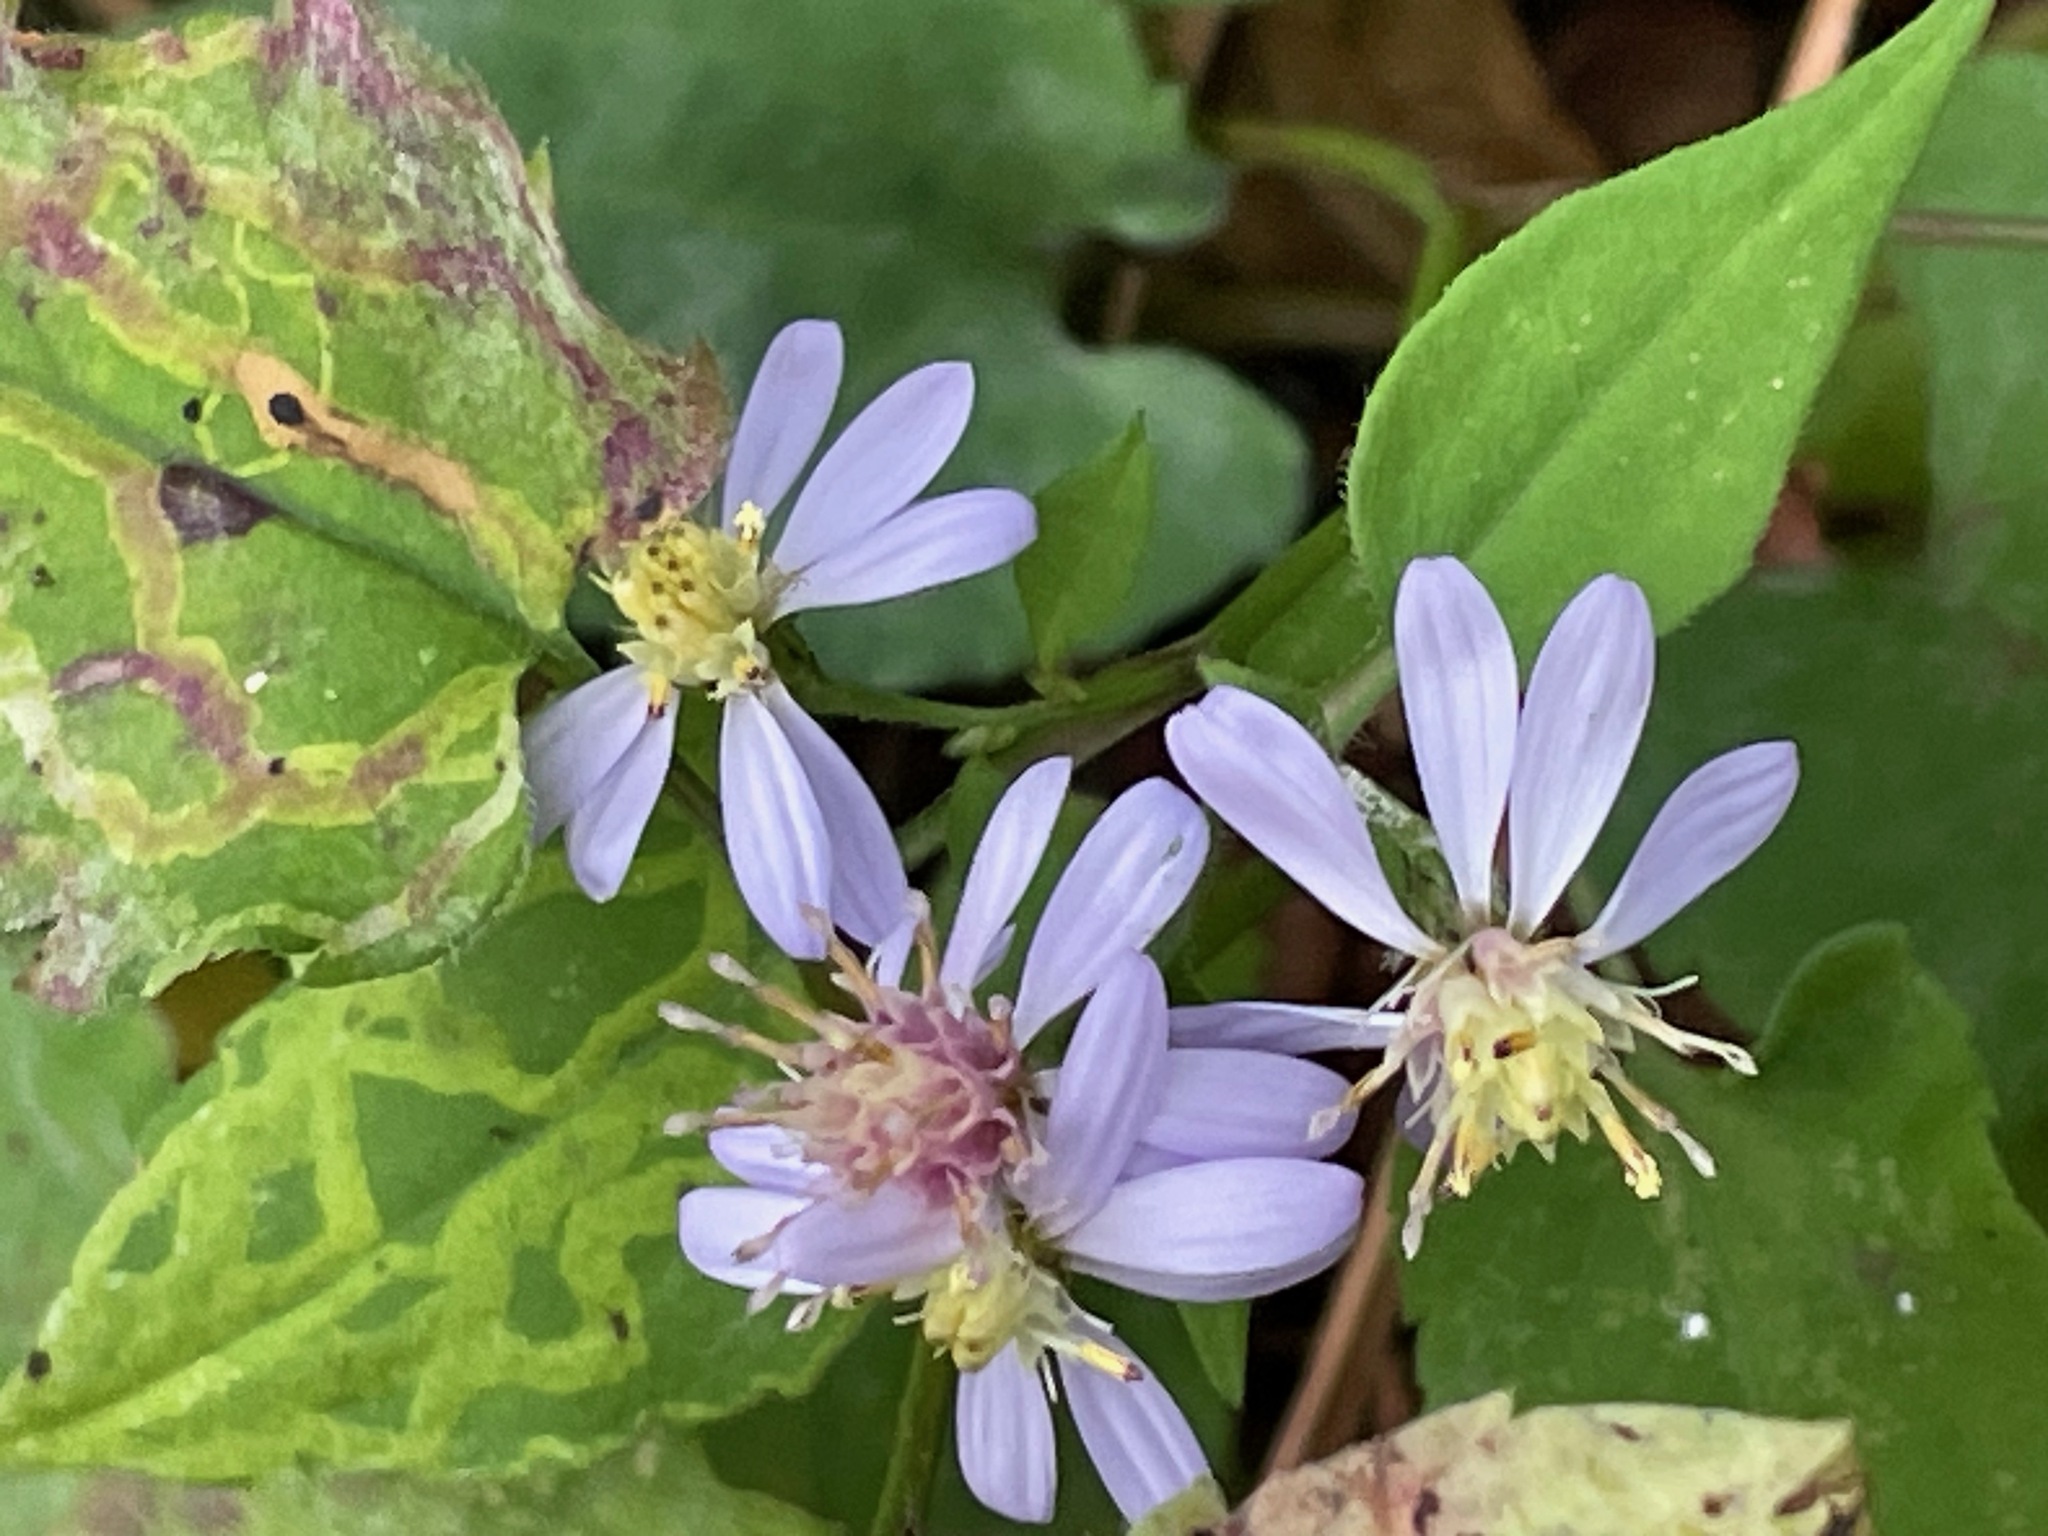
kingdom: Plantae
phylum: Tracheophyta
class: Magnoliopsida
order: Asterales
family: Asteraceae
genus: Symphyotrichum
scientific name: Symphyotrichum cordifolium
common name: Beeweed
